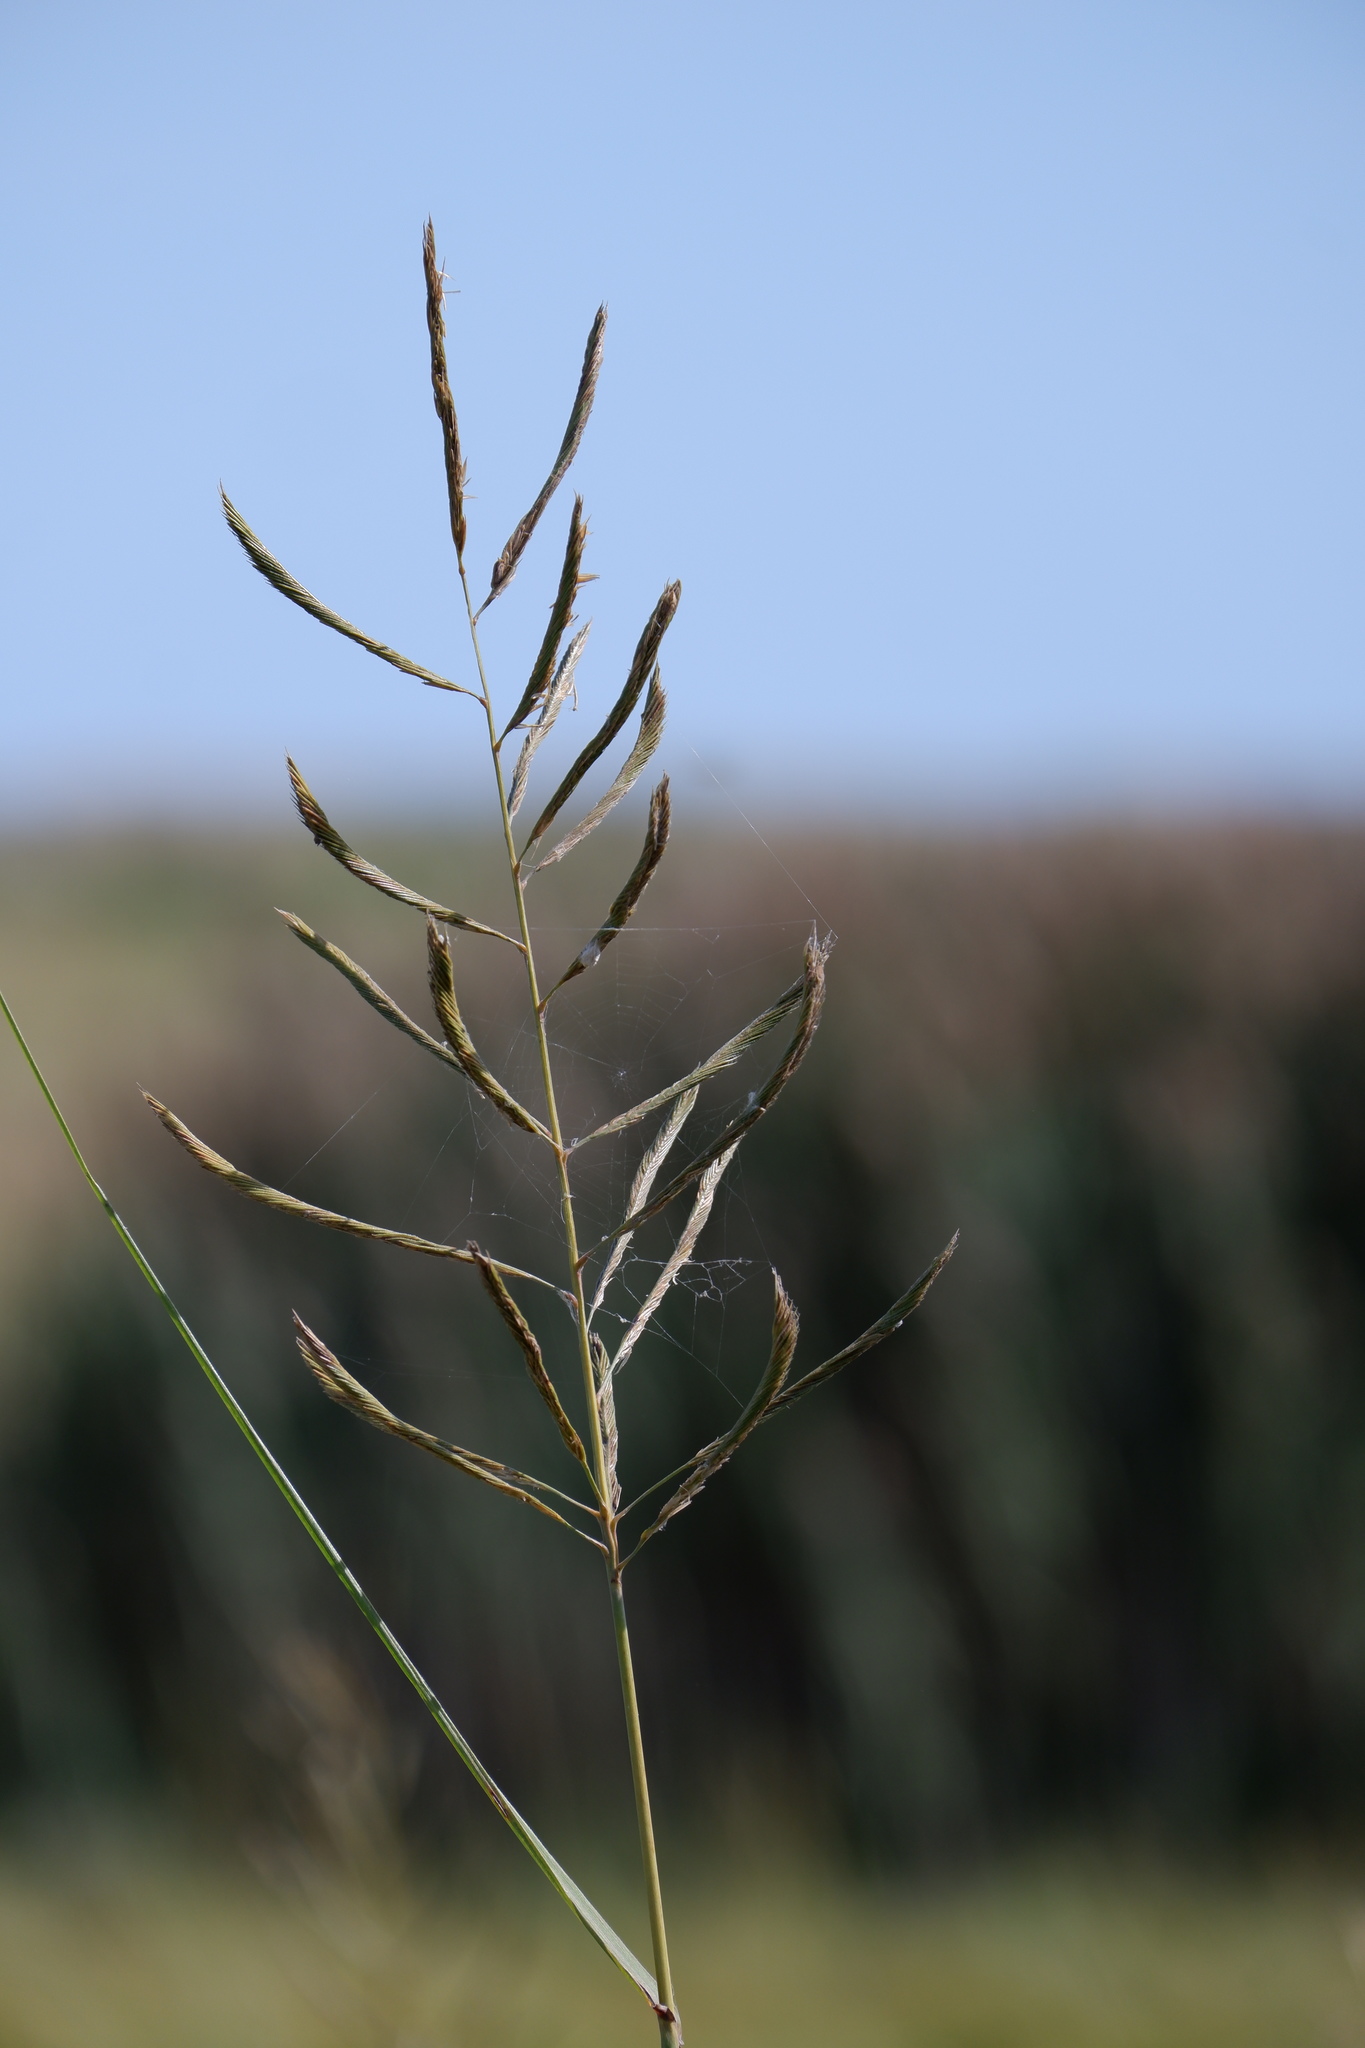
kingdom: Plantae
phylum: Tracheophyta
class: Liliopsida
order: Poales
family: Poaceae
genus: Sporobolus
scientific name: Sporobolus cynosuroides
